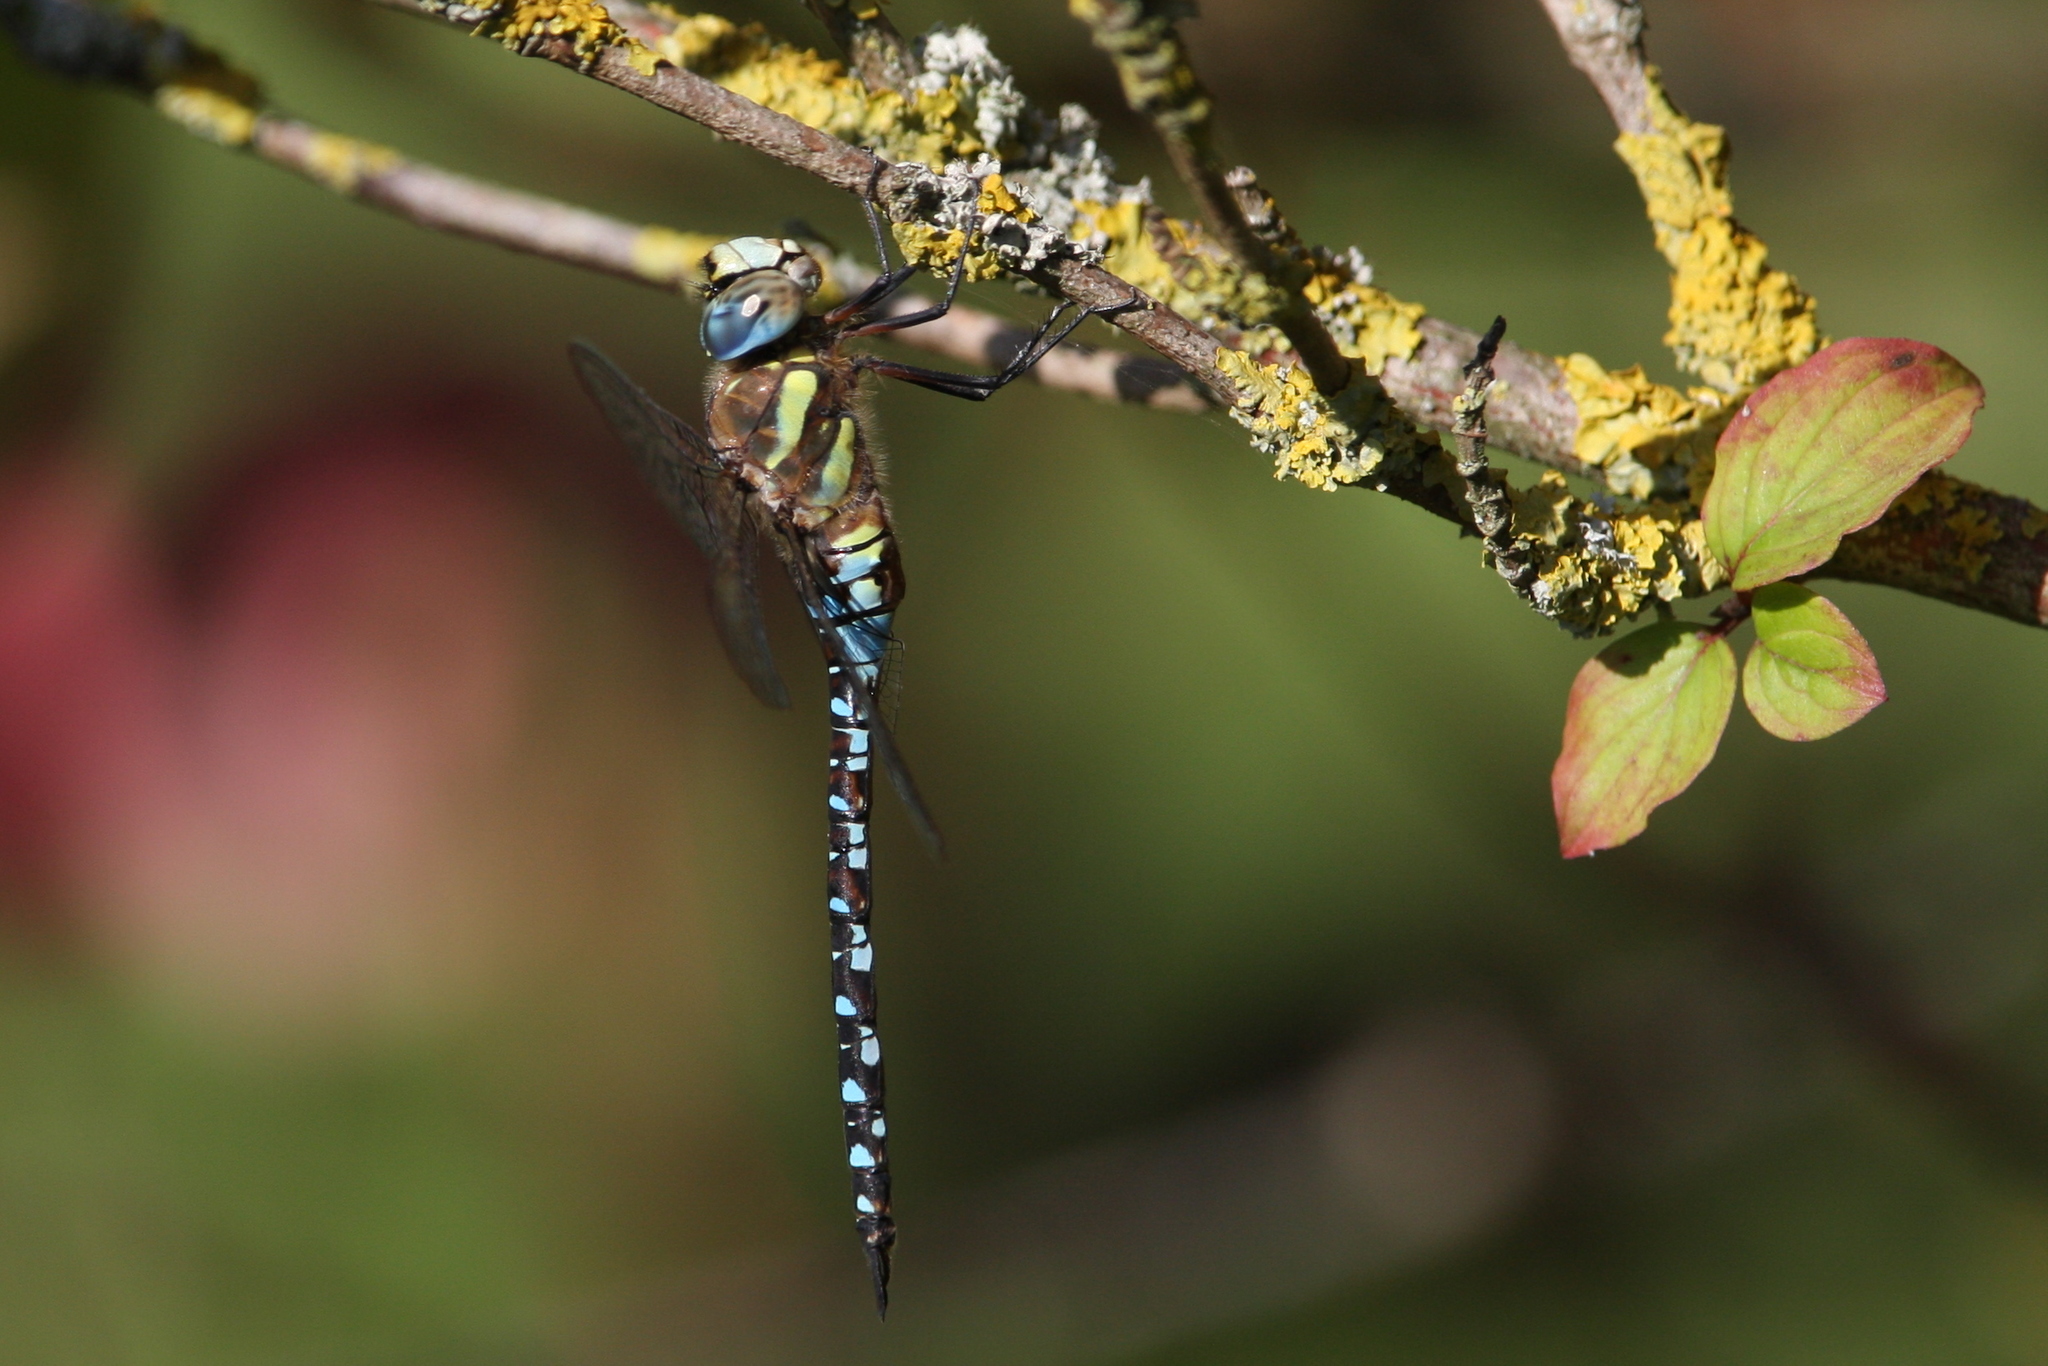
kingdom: Animalia
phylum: Arthropoda
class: Insecta
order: Odonata
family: Aeshnidae
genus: Aeshna
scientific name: Aeshna mixta
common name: Migrant hawker
